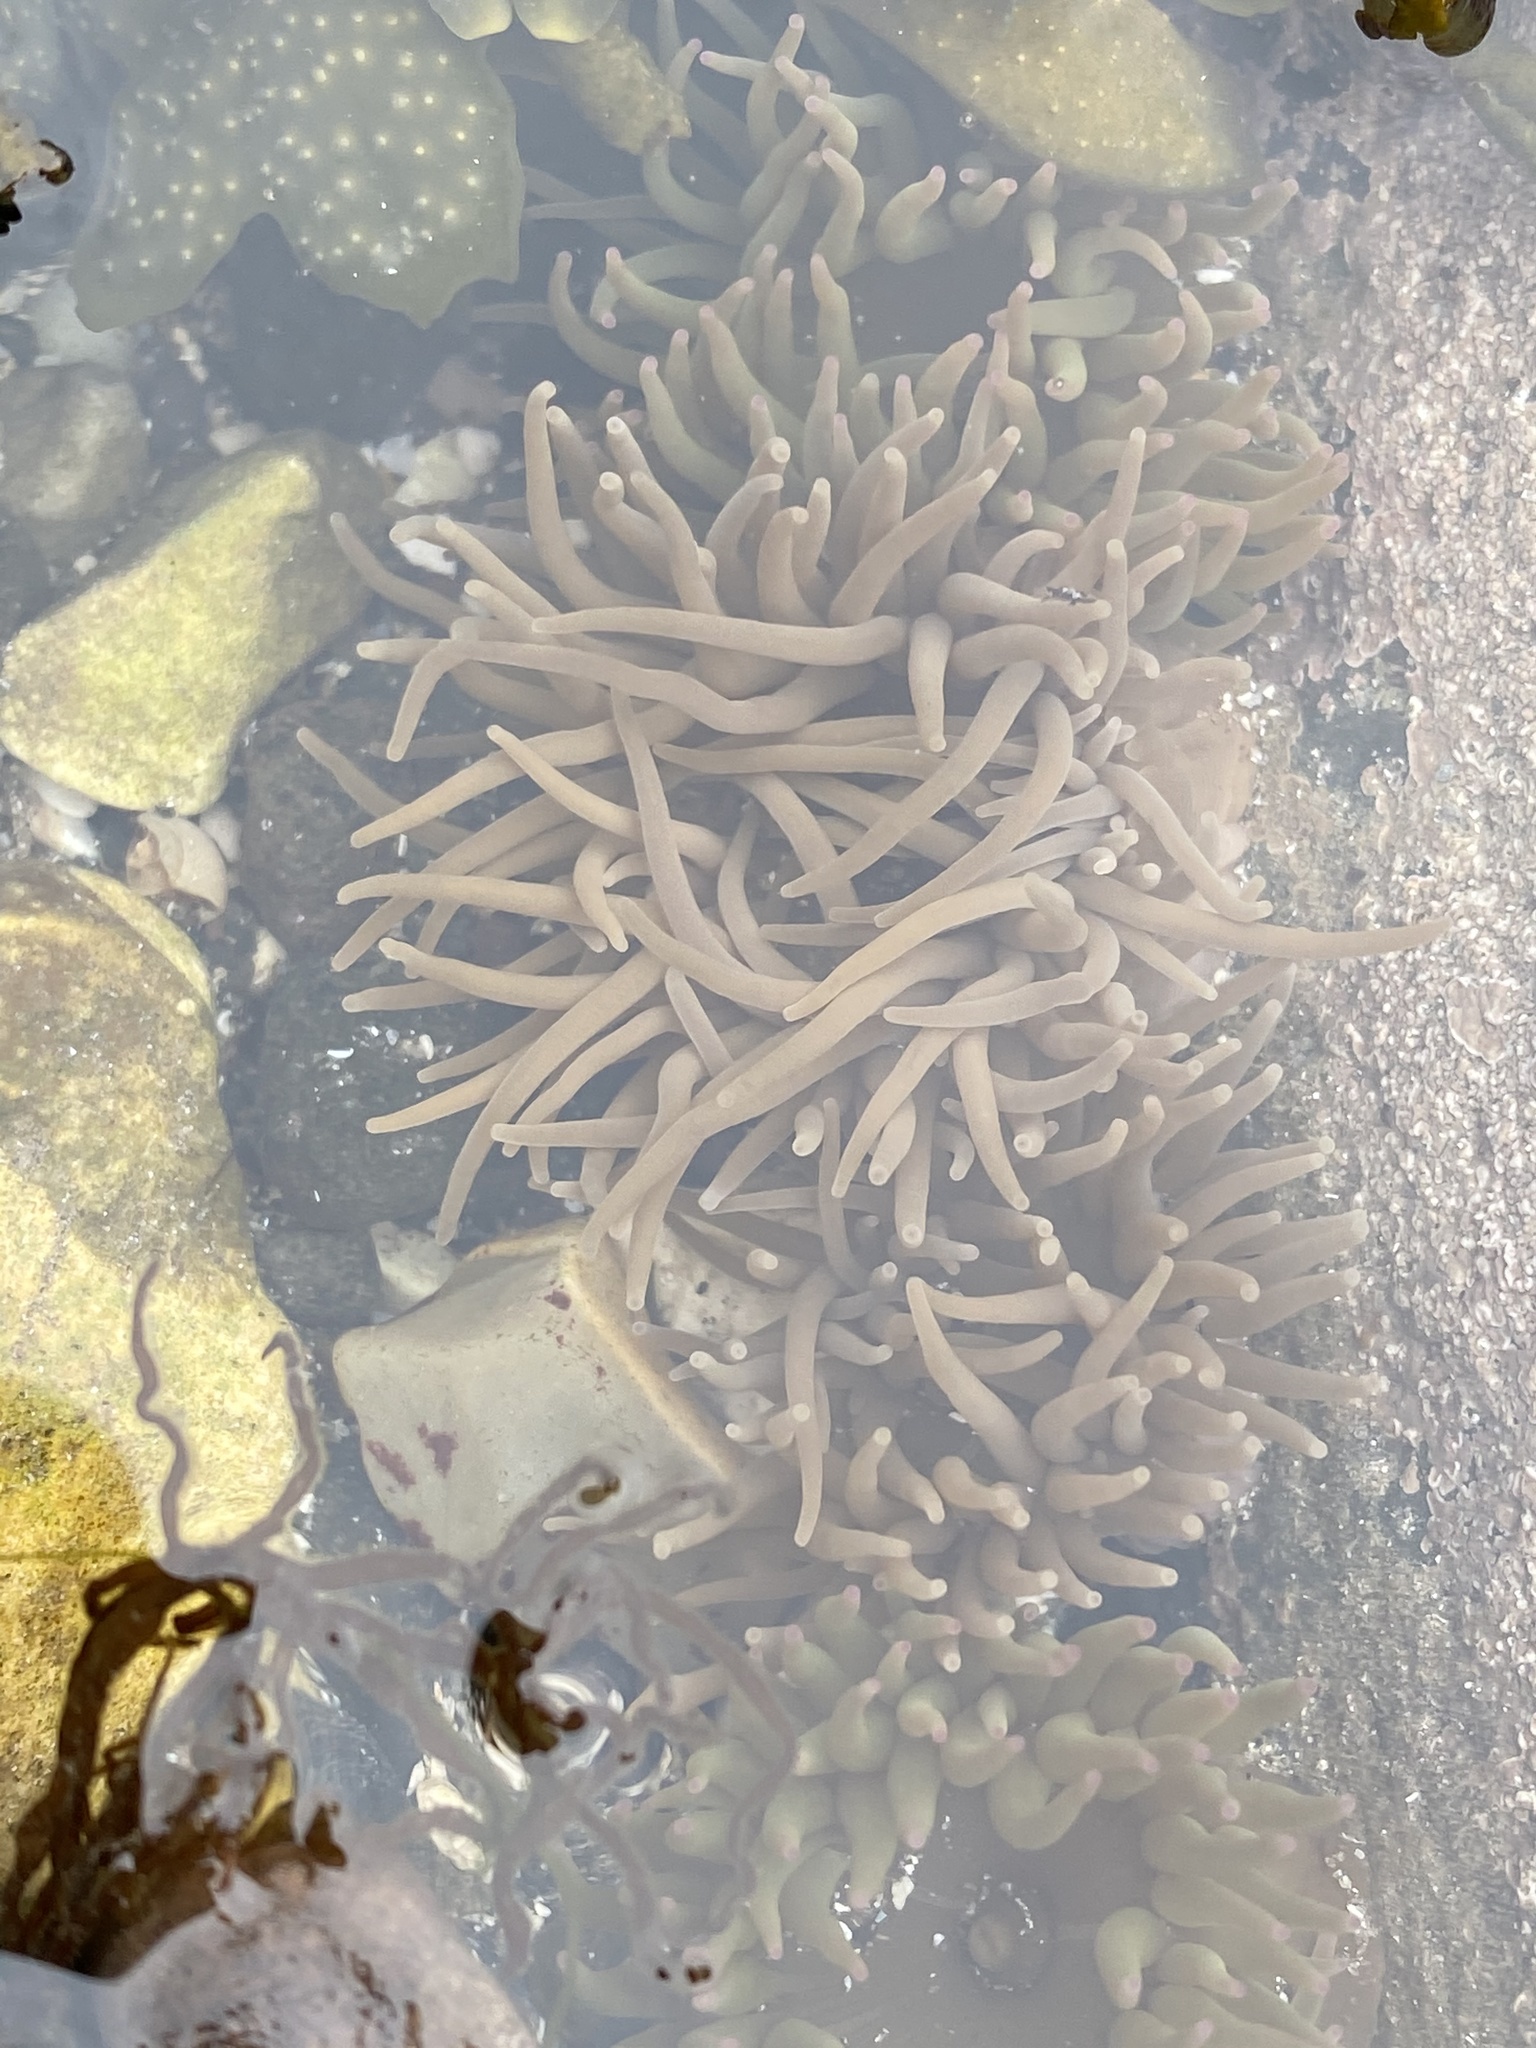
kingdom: Animalia
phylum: Cnidaria
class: Anthozoa
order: Actiniaria
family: Actiniidae
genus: Anemonia
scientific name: Anemonia viridis
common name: Snakelocks anemone
